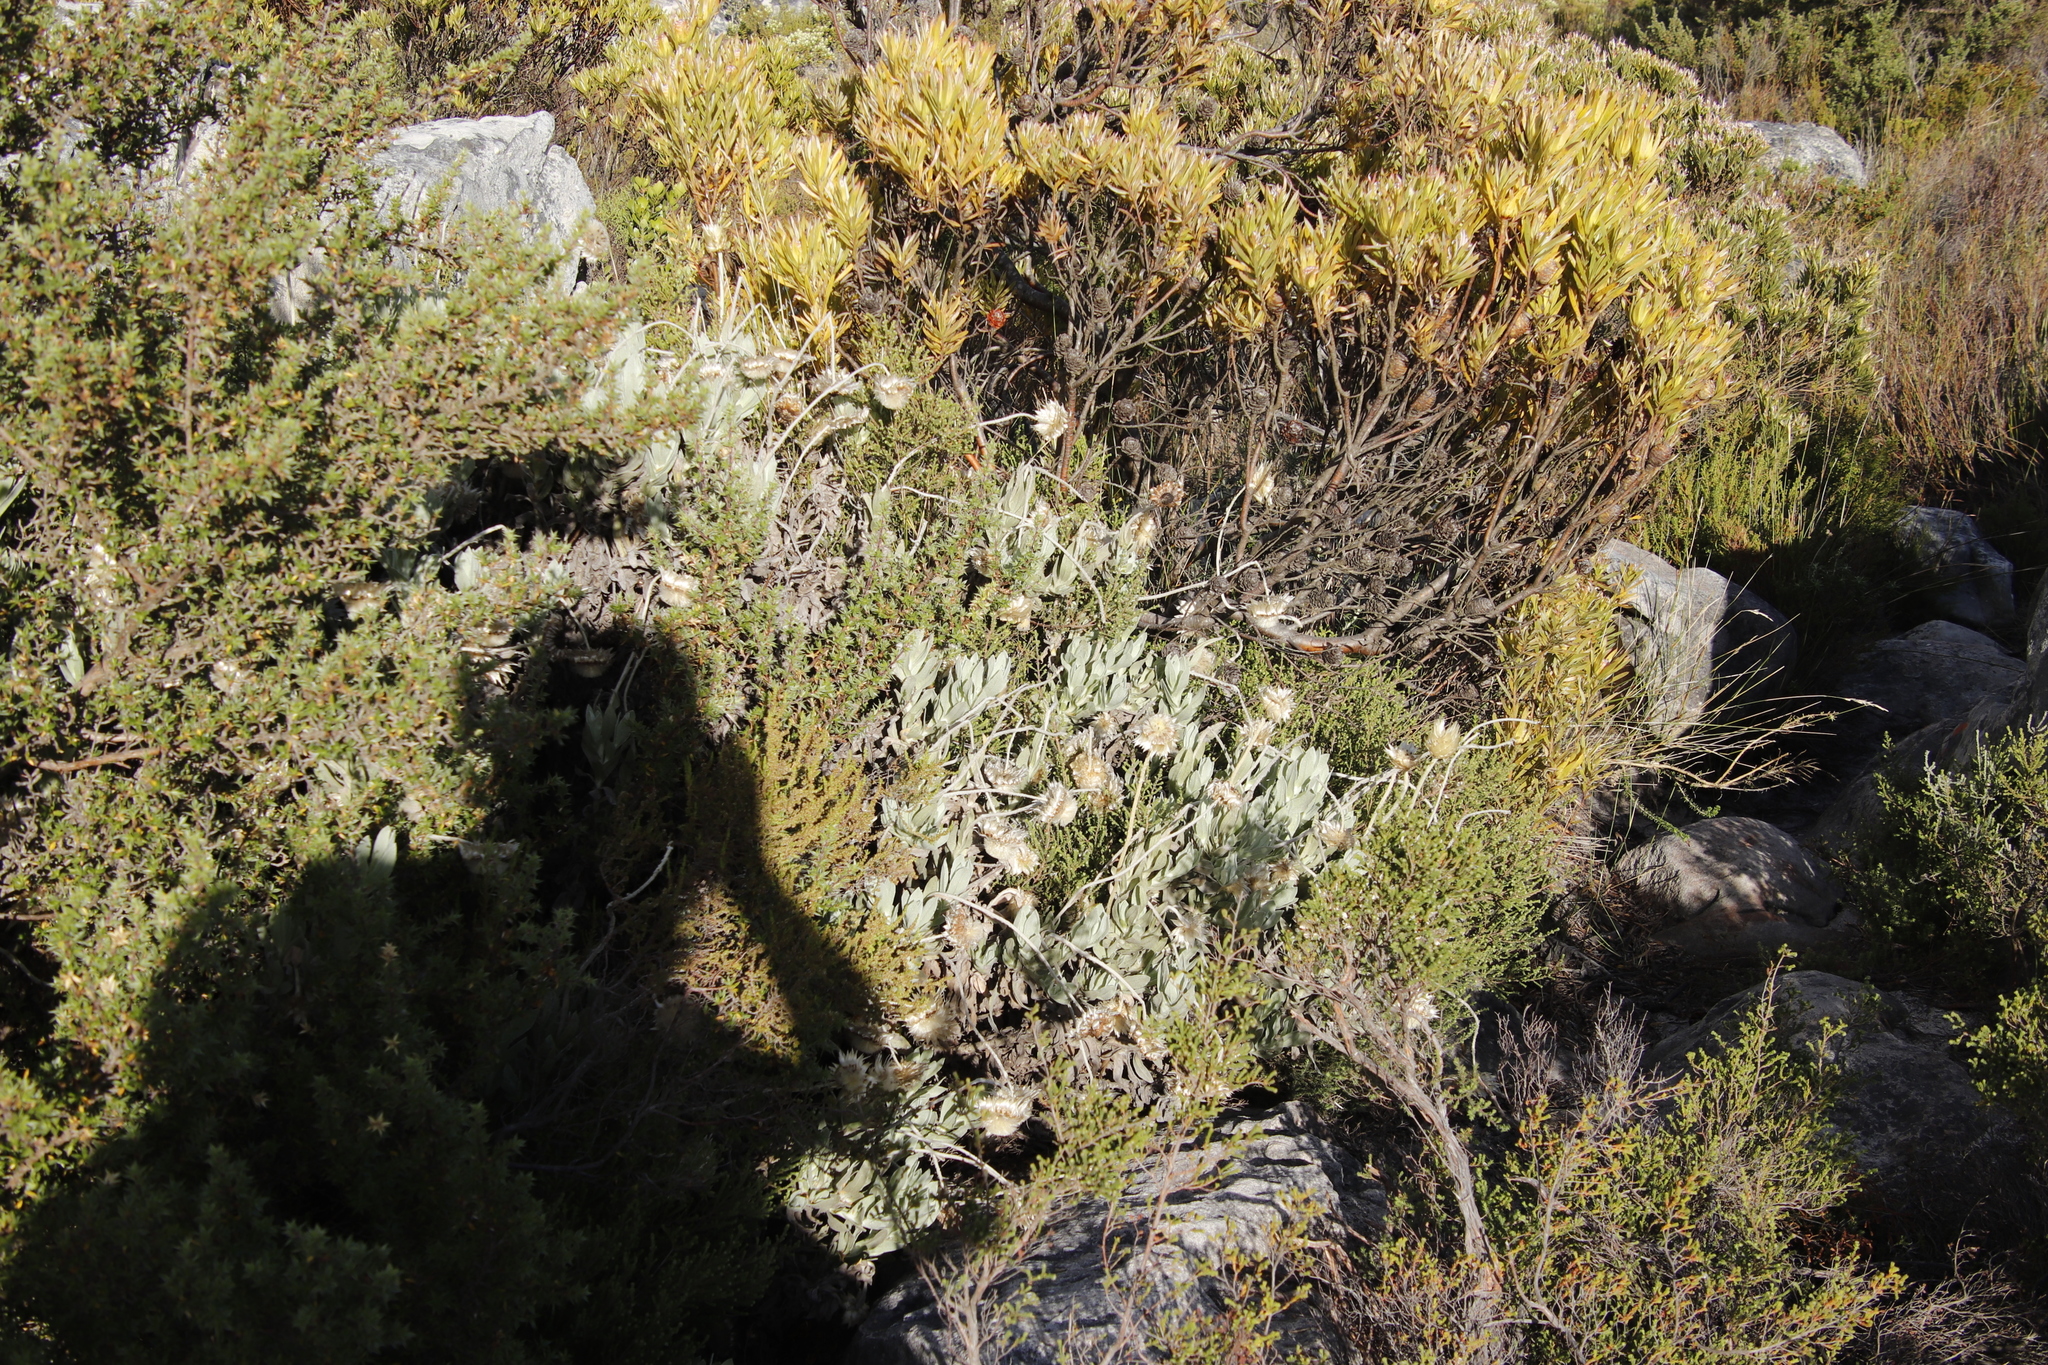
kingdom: Plantae
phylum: Tracheophyta
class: Magnoliopsida
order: Asterales
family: Asteraceae
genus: Syncarpha
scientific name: Syncarpha speciosissima
